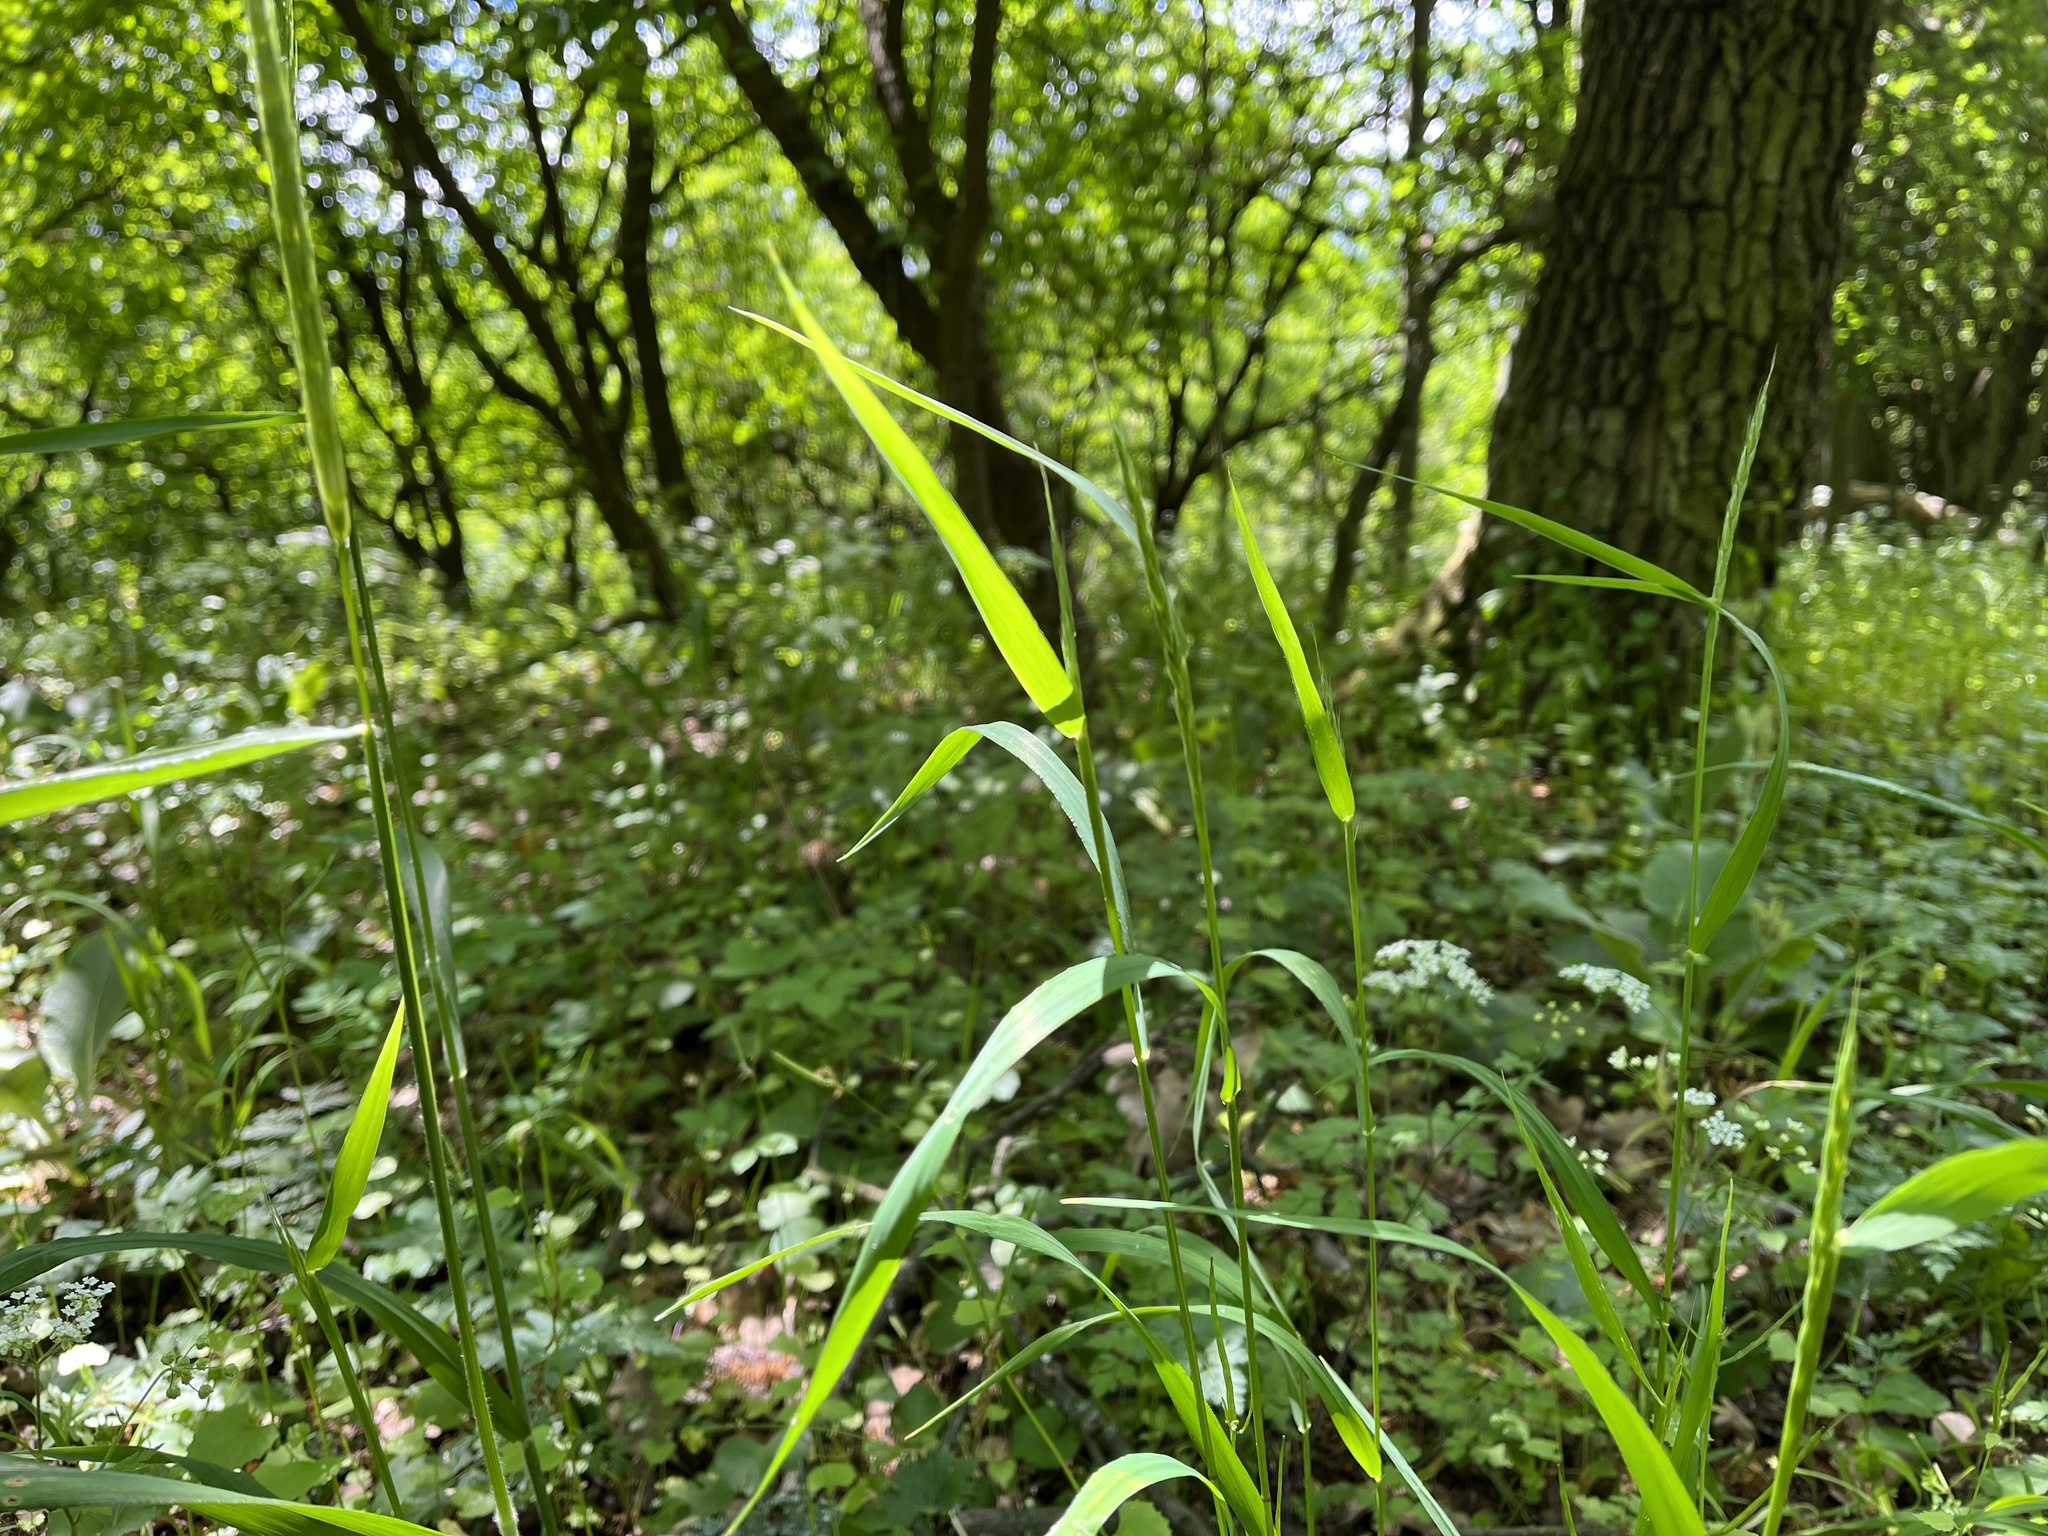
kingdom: Plantae
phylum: Tracheophyta
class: Liliopsida
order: Poales
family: Poaceae
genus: Hordelymus
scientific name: Hordelymus europaeus
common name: Wood-barley
